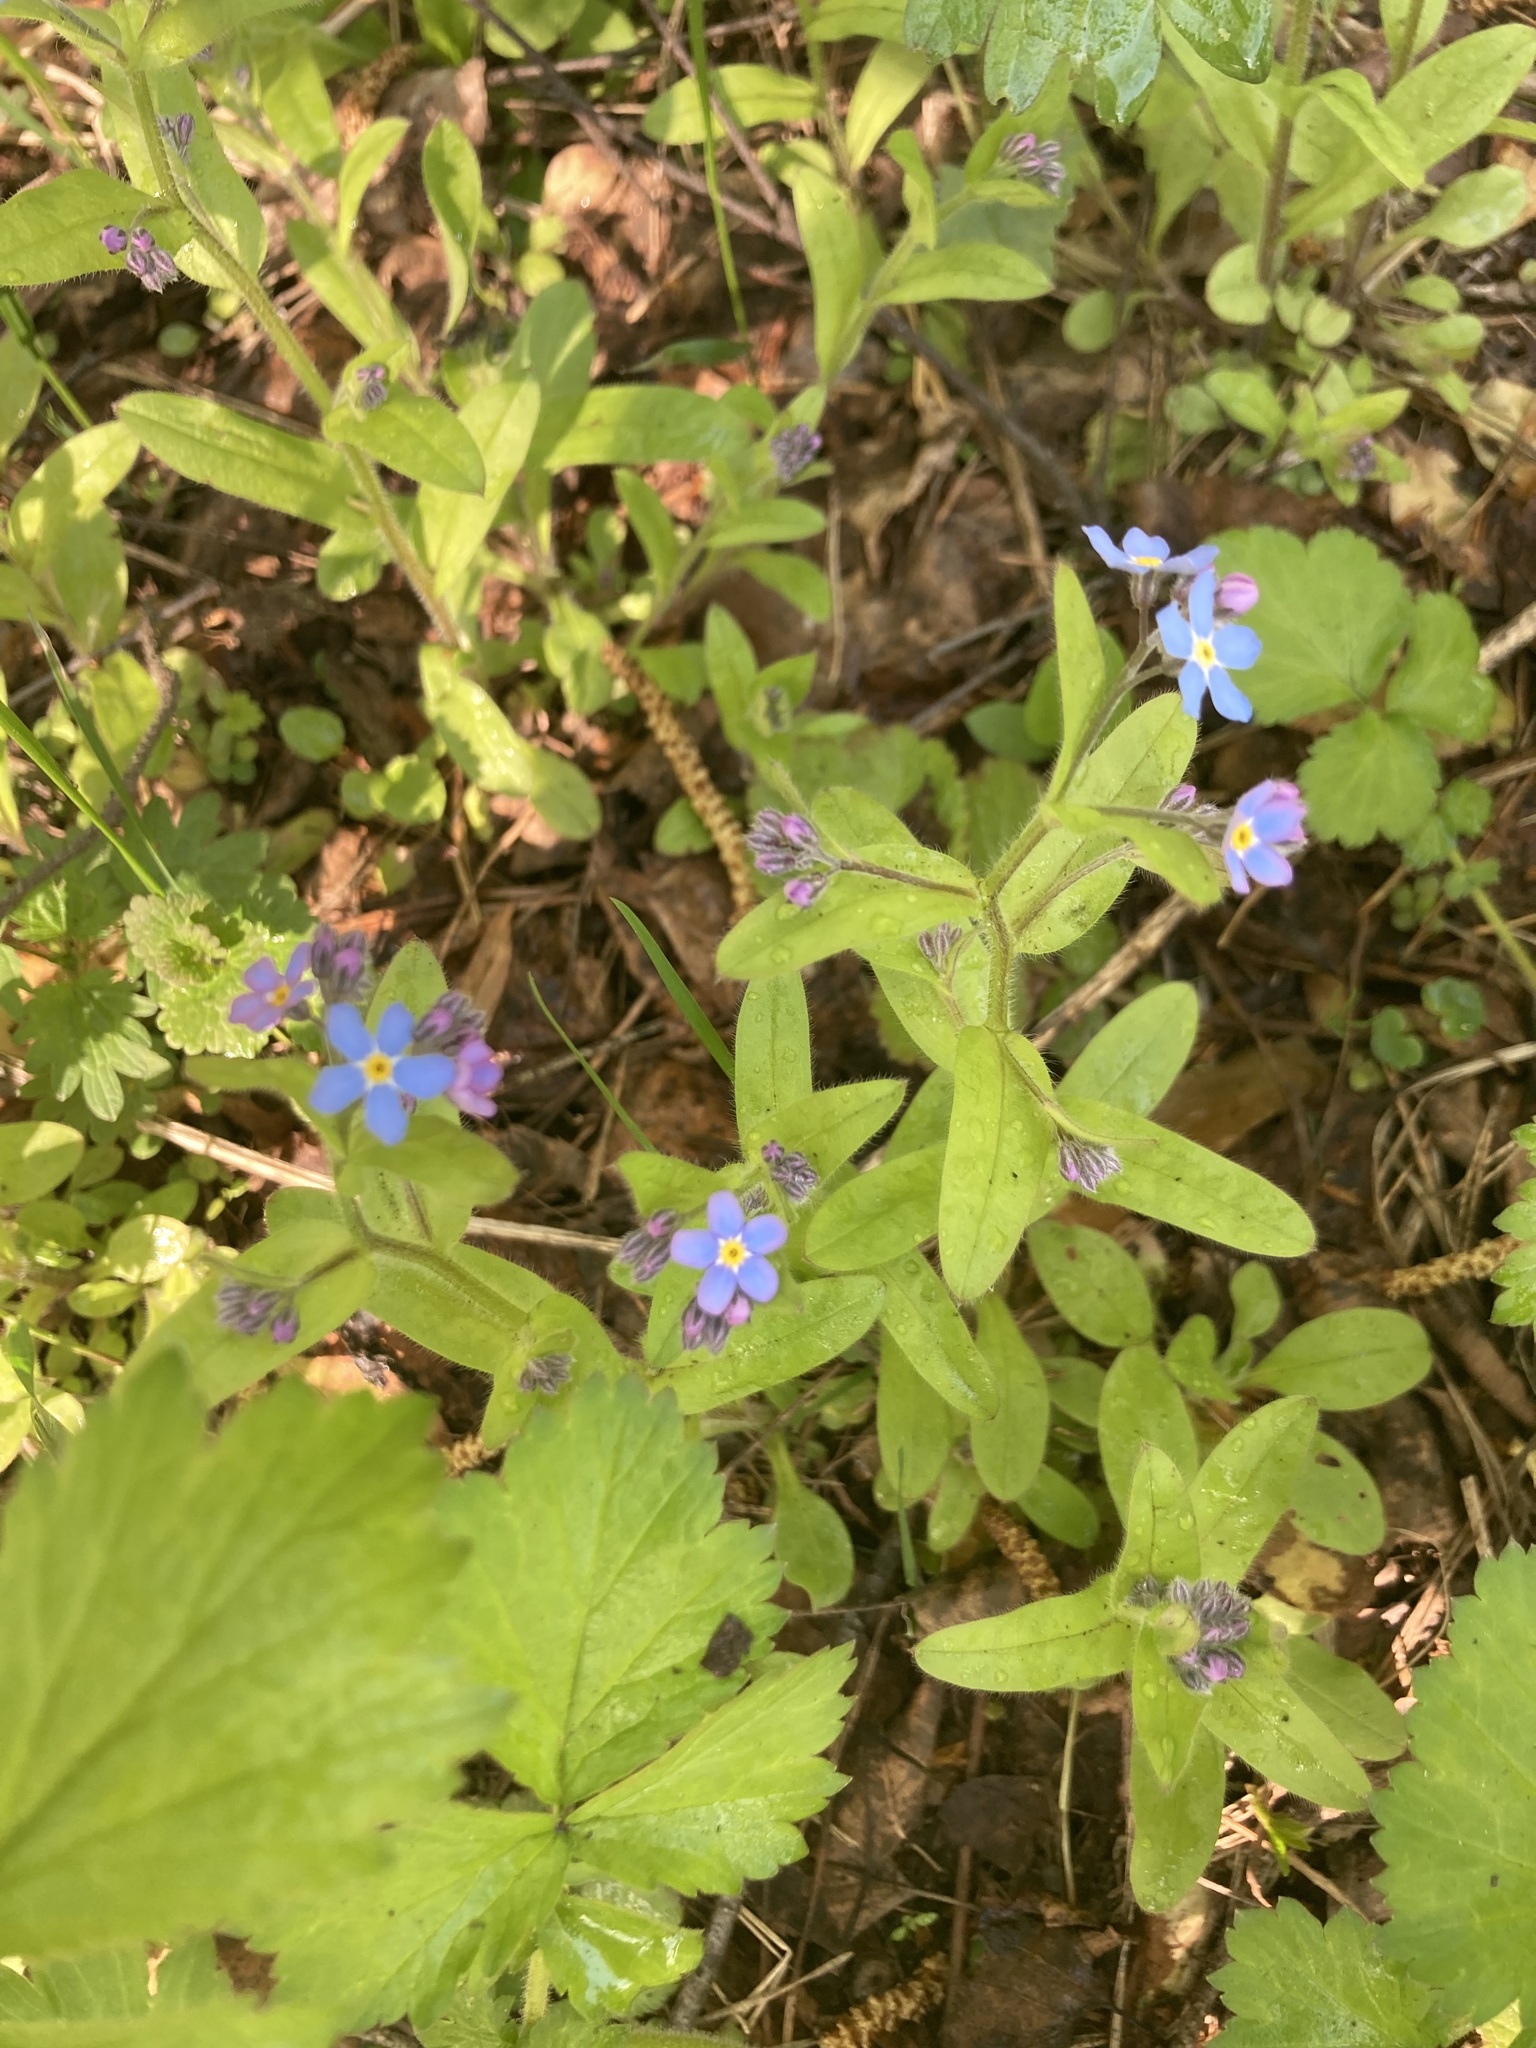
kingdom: Plantae
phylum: Tracheophyta
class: Magnoliopsida
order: Boraginales
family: Boraginaceae
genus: Myosotis
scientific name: Myosotis sylvatica
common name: Wood forget-me-not
